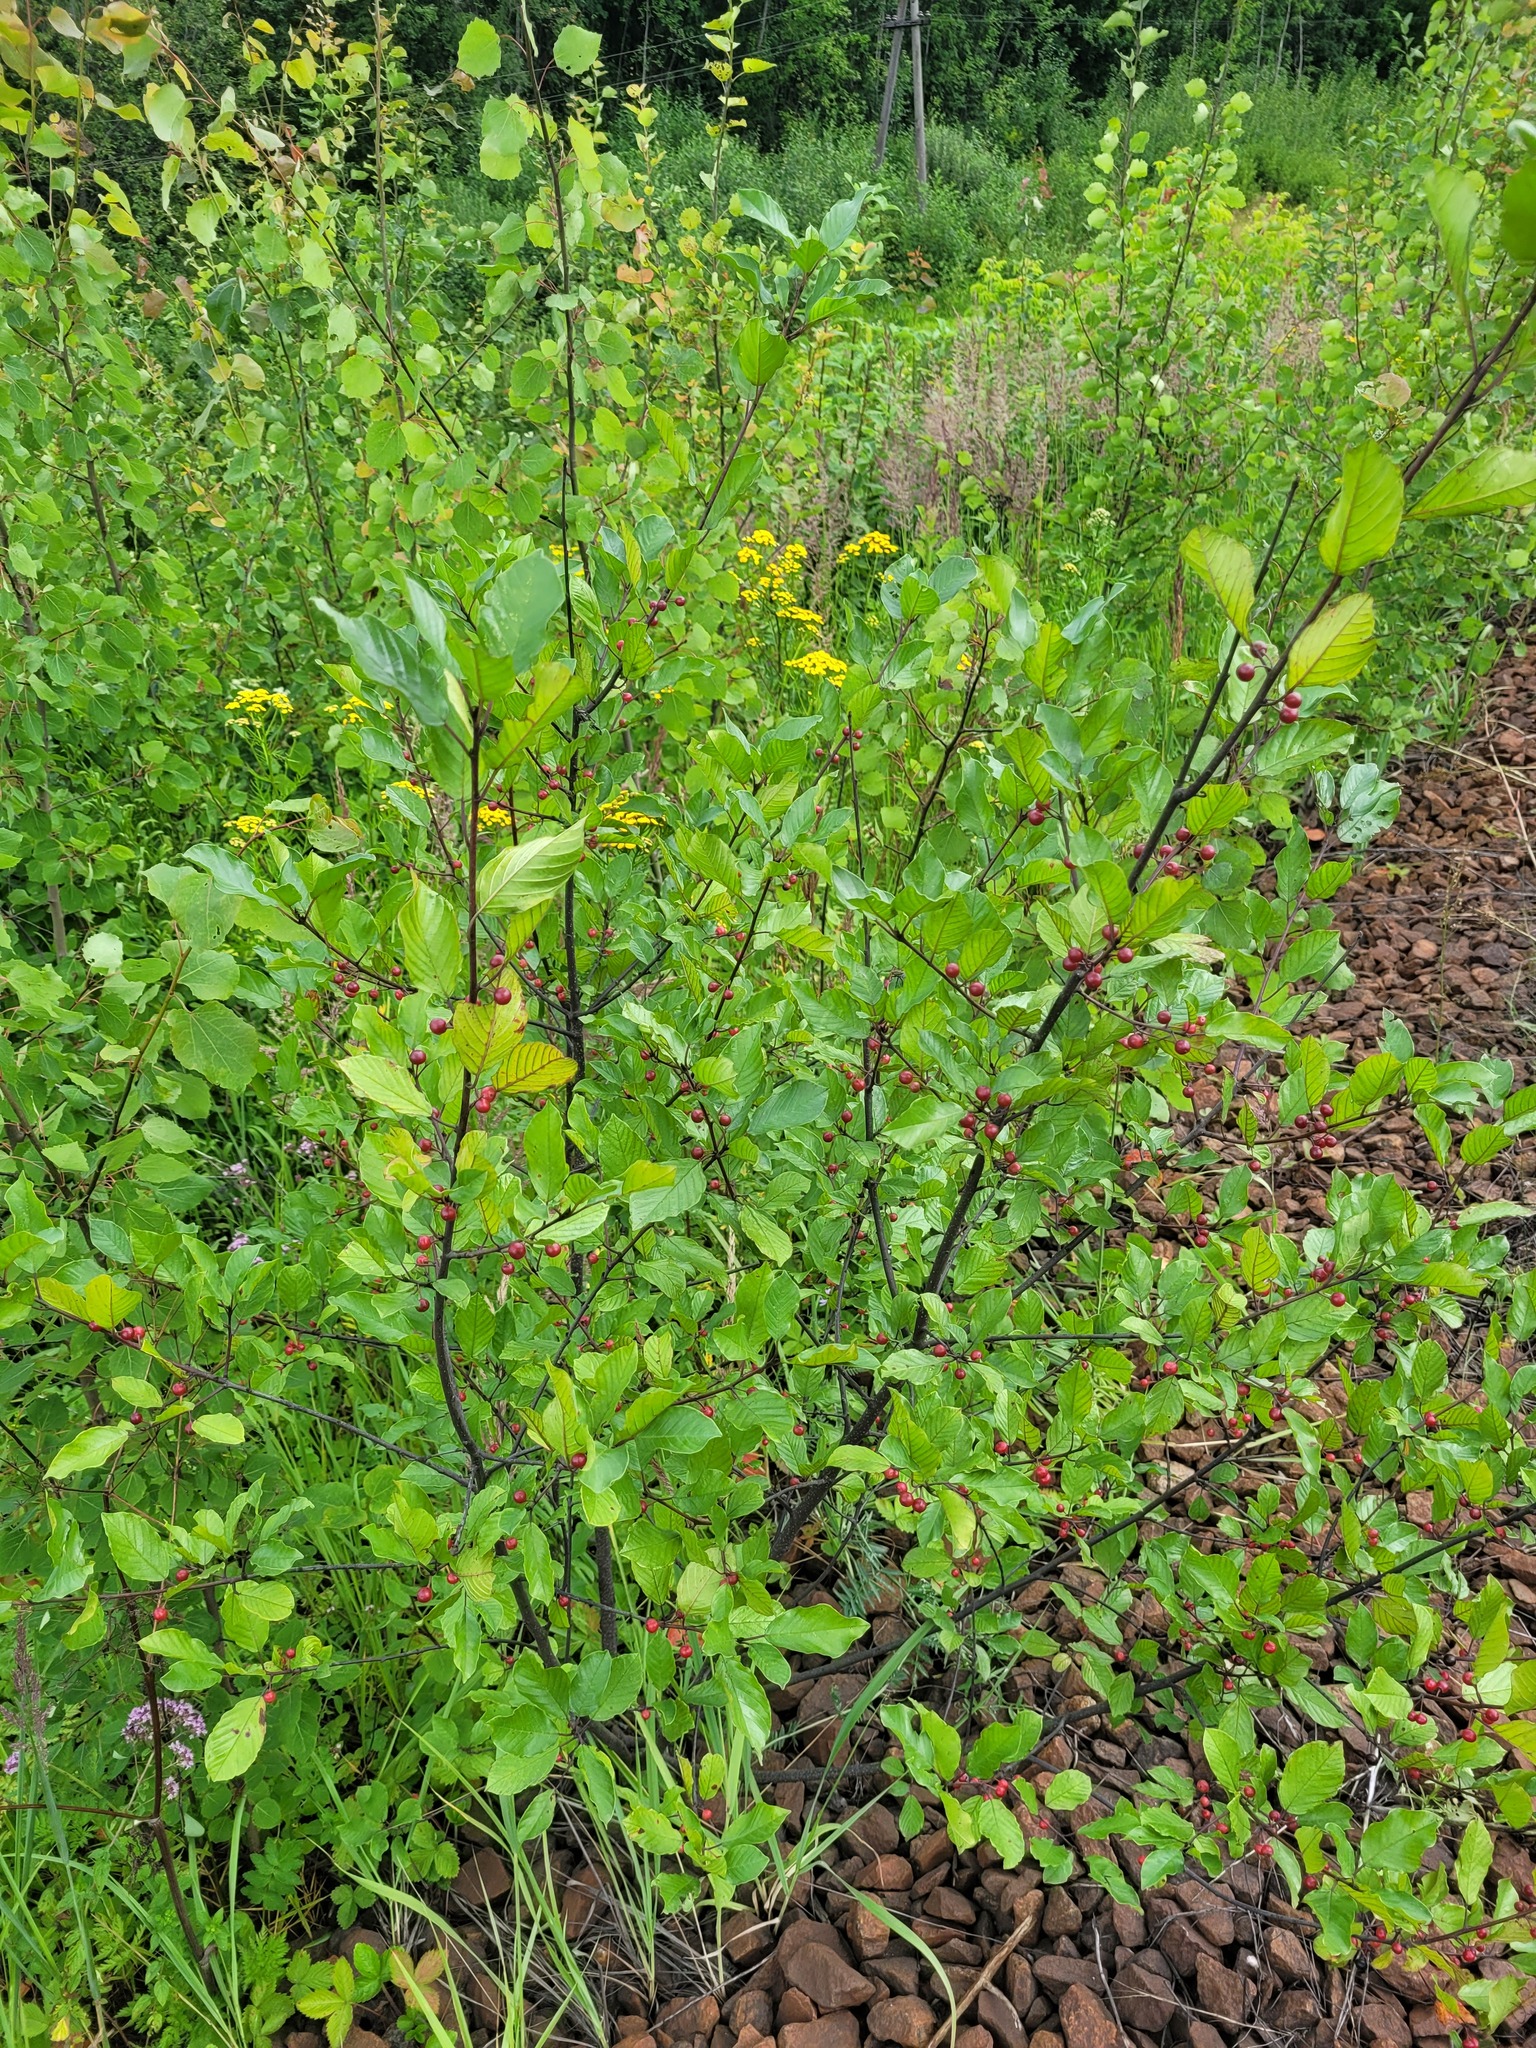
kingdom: Plantae
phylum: Tracheophyta
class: Magnoliopsida
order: Rosales
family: Rhamnaceae
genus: Frangula
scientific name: Frangula alnus
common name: Alder buckthorn
